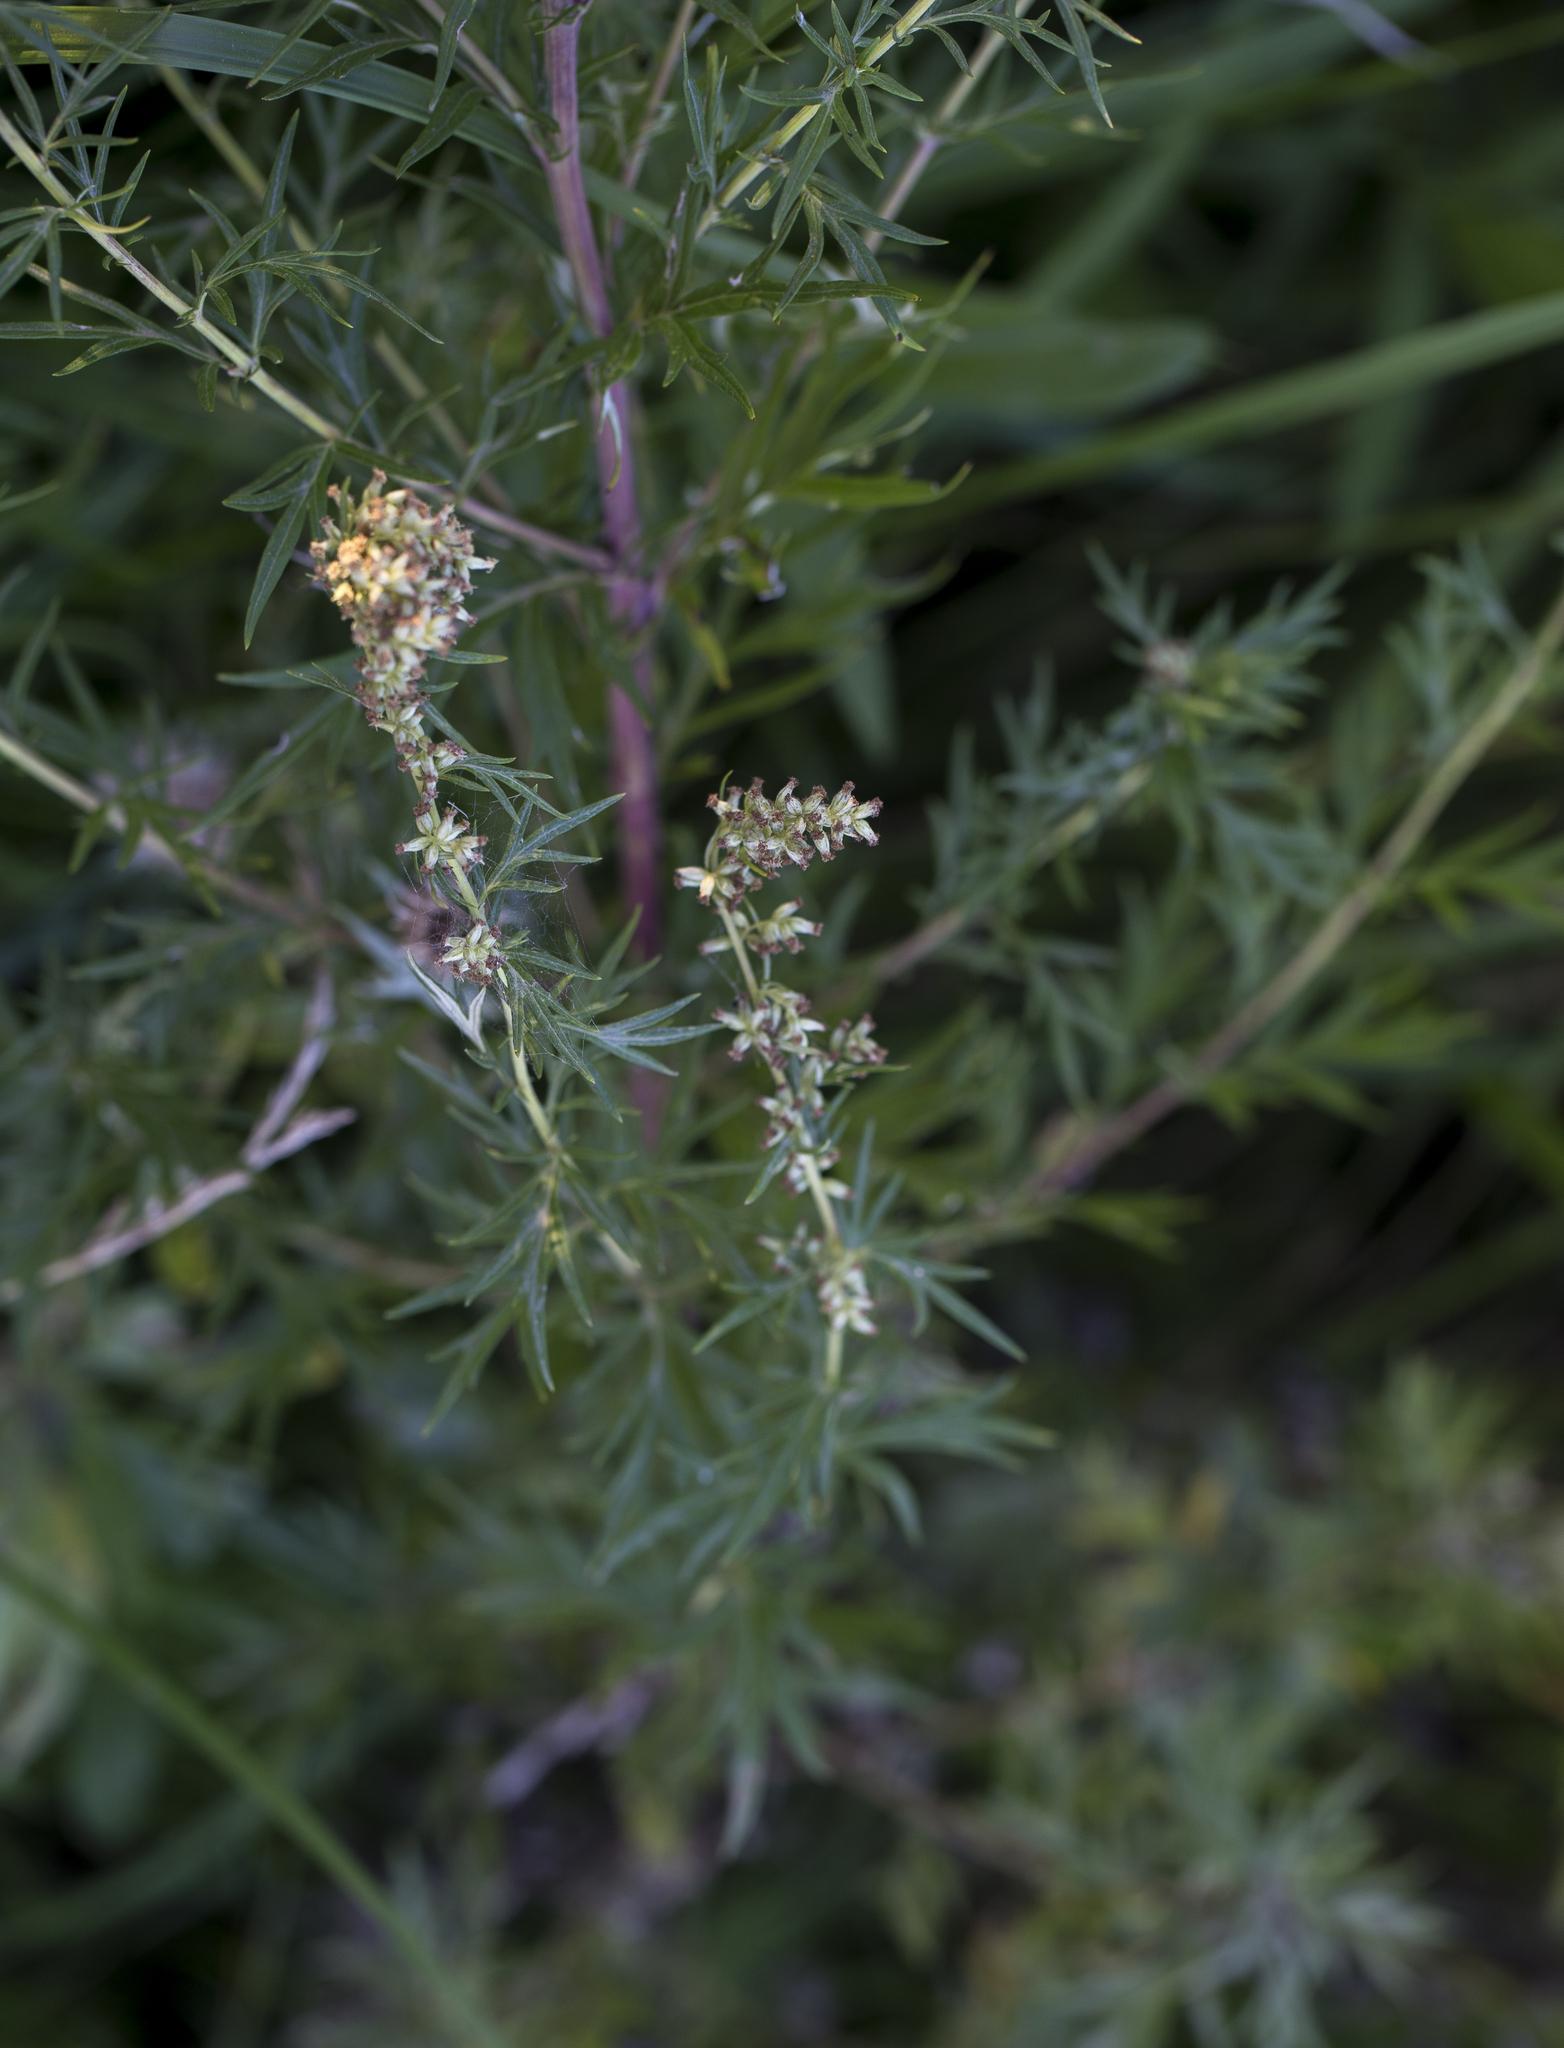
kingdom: Plantae
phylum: Tracheophyta
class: Magnoliopsida
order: Asterales
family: Asteraceae
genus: Artemisia
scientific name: Artemisia vulgaris
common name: Mugwort
